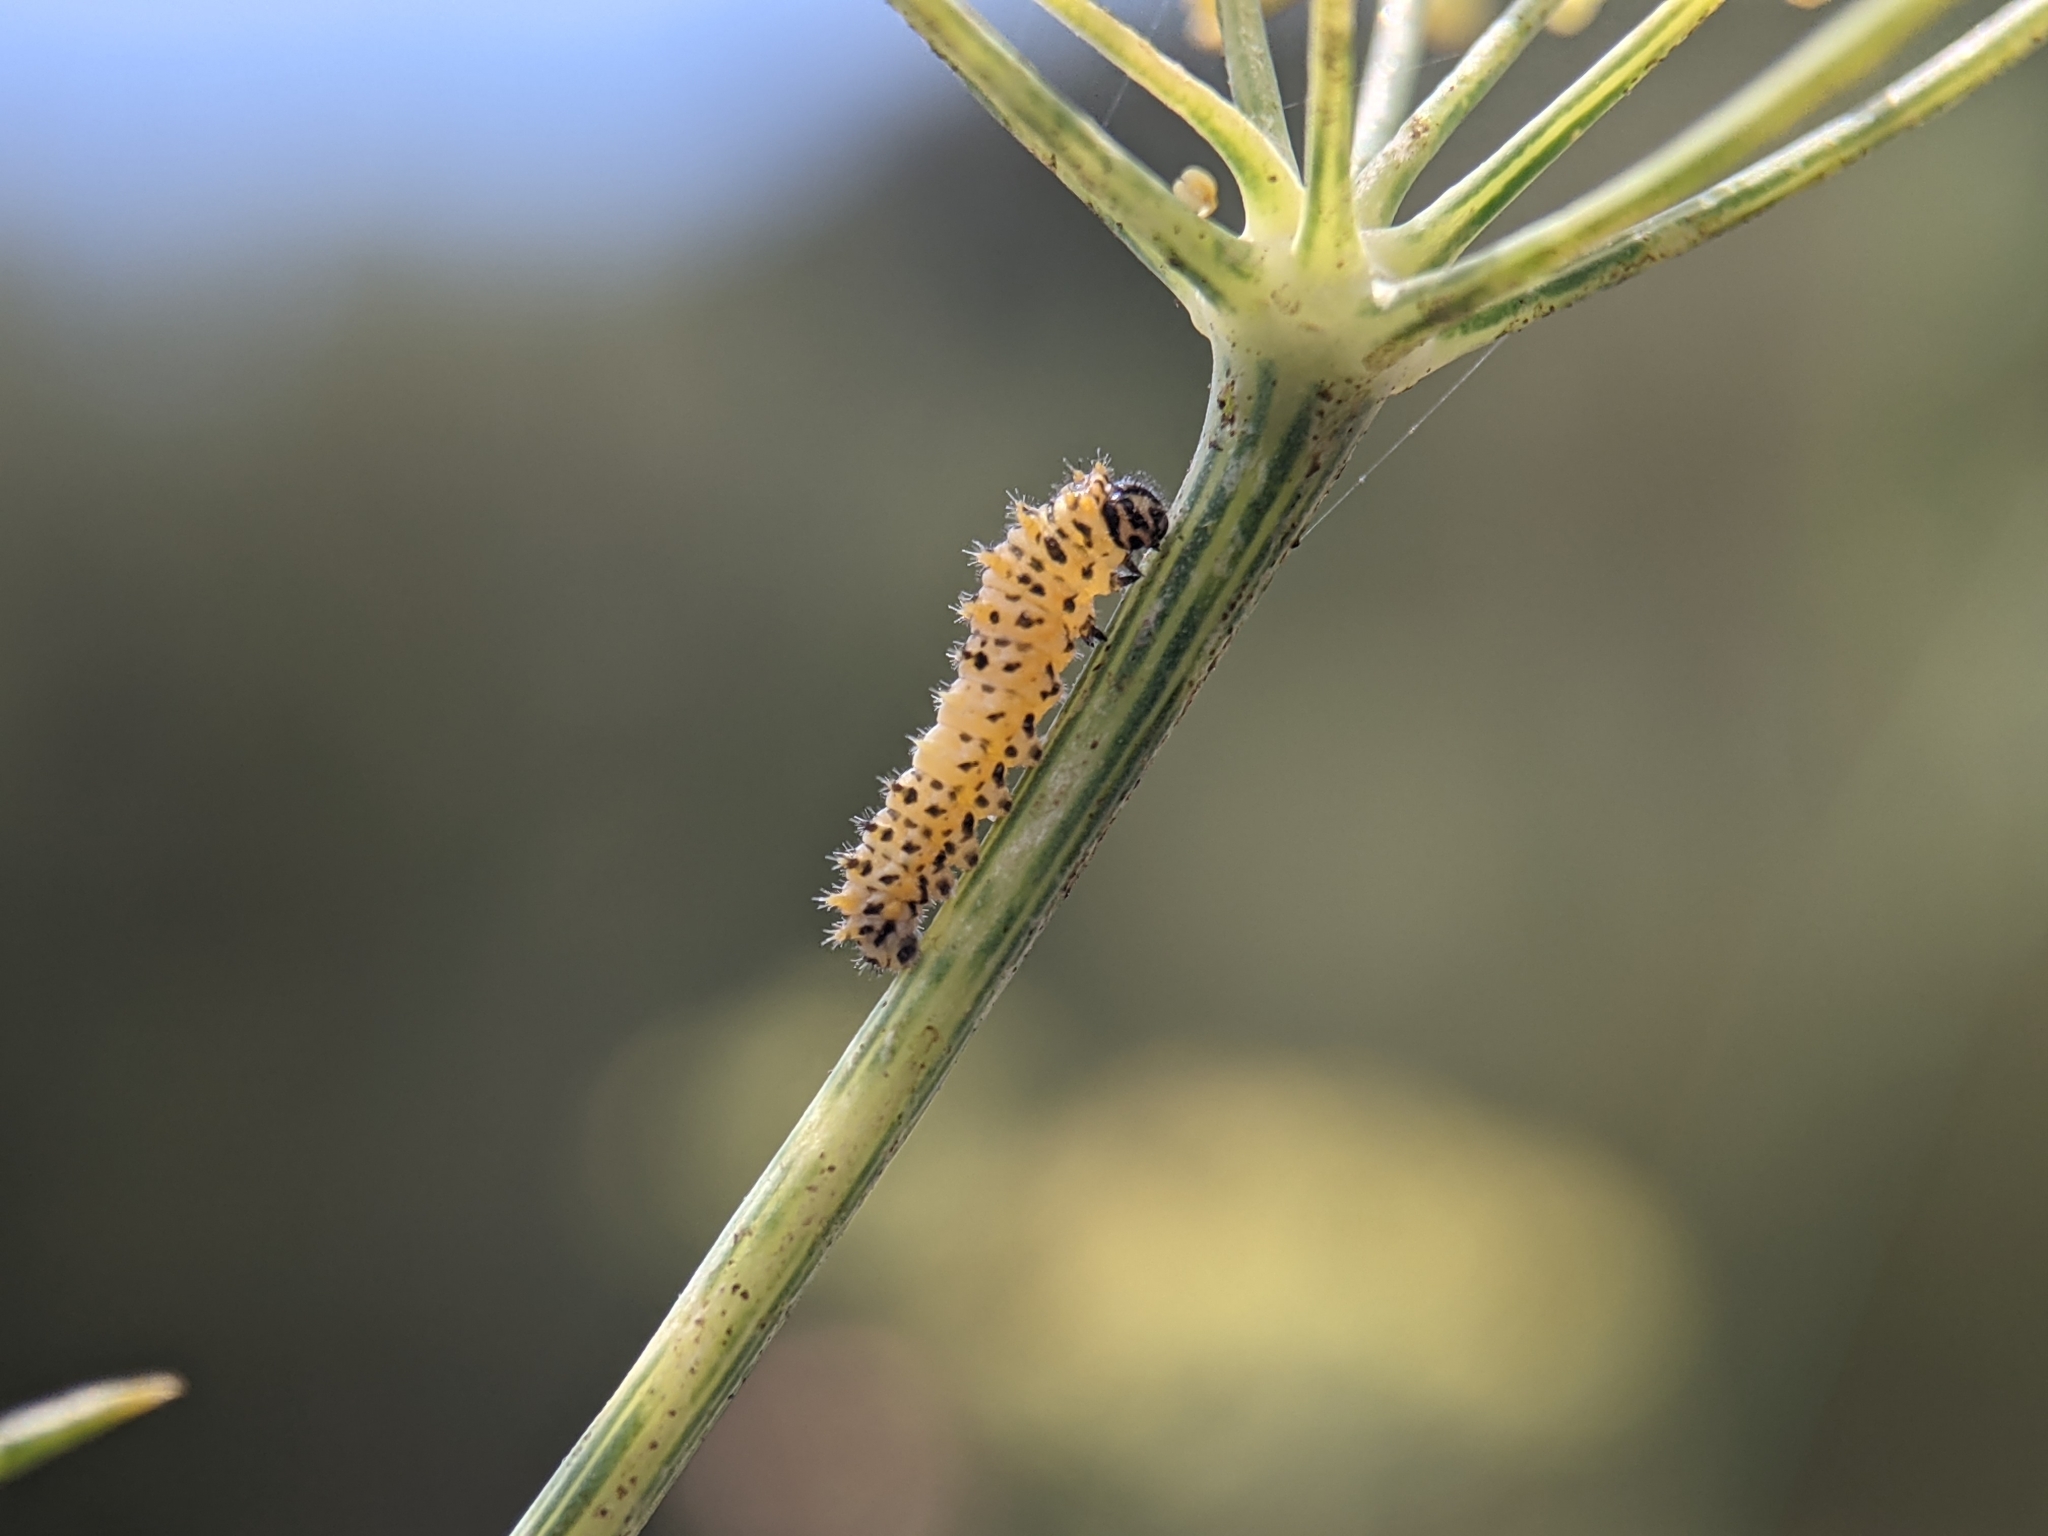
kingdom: Animalia
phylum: Arthropoda
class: Insecta
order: Lepidoptera
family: Papilionidae
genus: Papilio
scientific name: Papilio machaon
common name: Swallowtail
